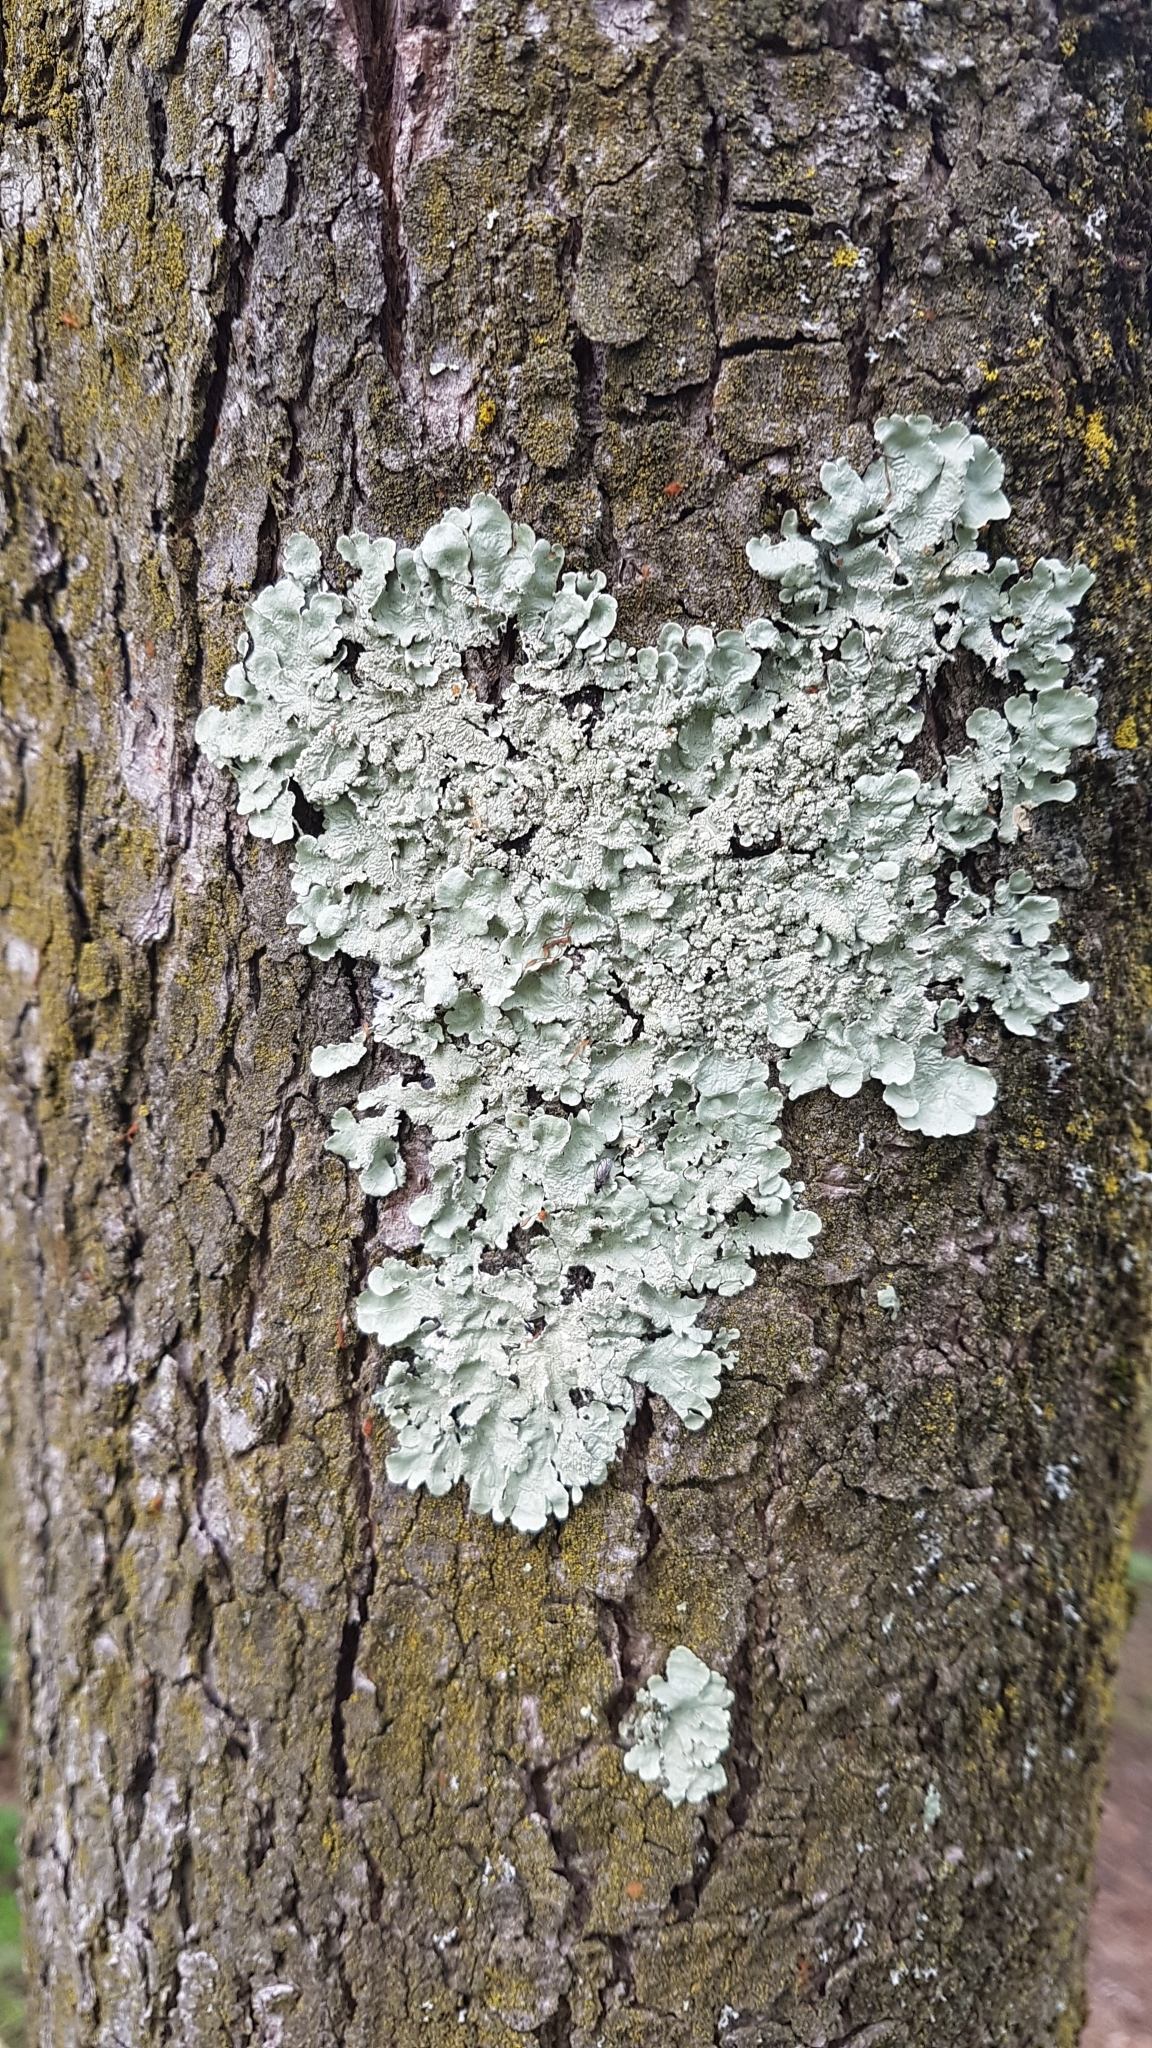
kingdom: Fungi
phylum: Ascomycota
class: Lecanoromycetes
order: Lecanorales
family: Parmeliaceae
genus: Flavoparmelia
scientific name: Flavoparmelia caperata
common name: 40-mile per hour lichen
